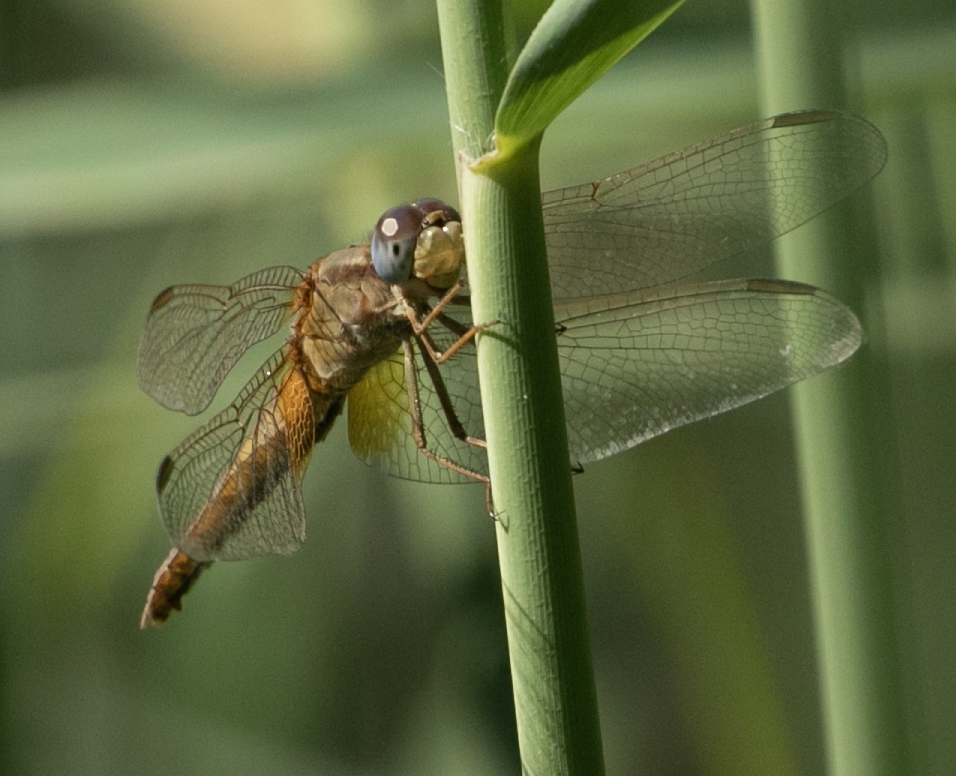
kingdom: Animalia
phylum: Arthropoda
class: Insecta
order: Odonata
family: Libellulidae
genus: Crocothemis
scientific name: Crocothemis erythraea
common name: Scarlet dragonfly
